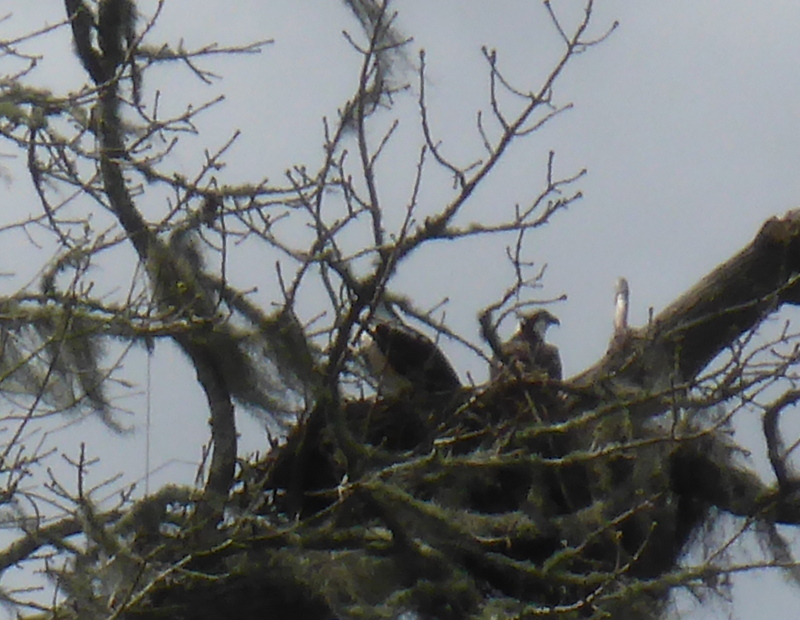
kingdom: Animalia
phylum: Chordata
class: Aves
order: Accipitriformes
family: Pandionidae
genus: Pandion
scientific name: Pandion haliaetus
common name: Osprey
